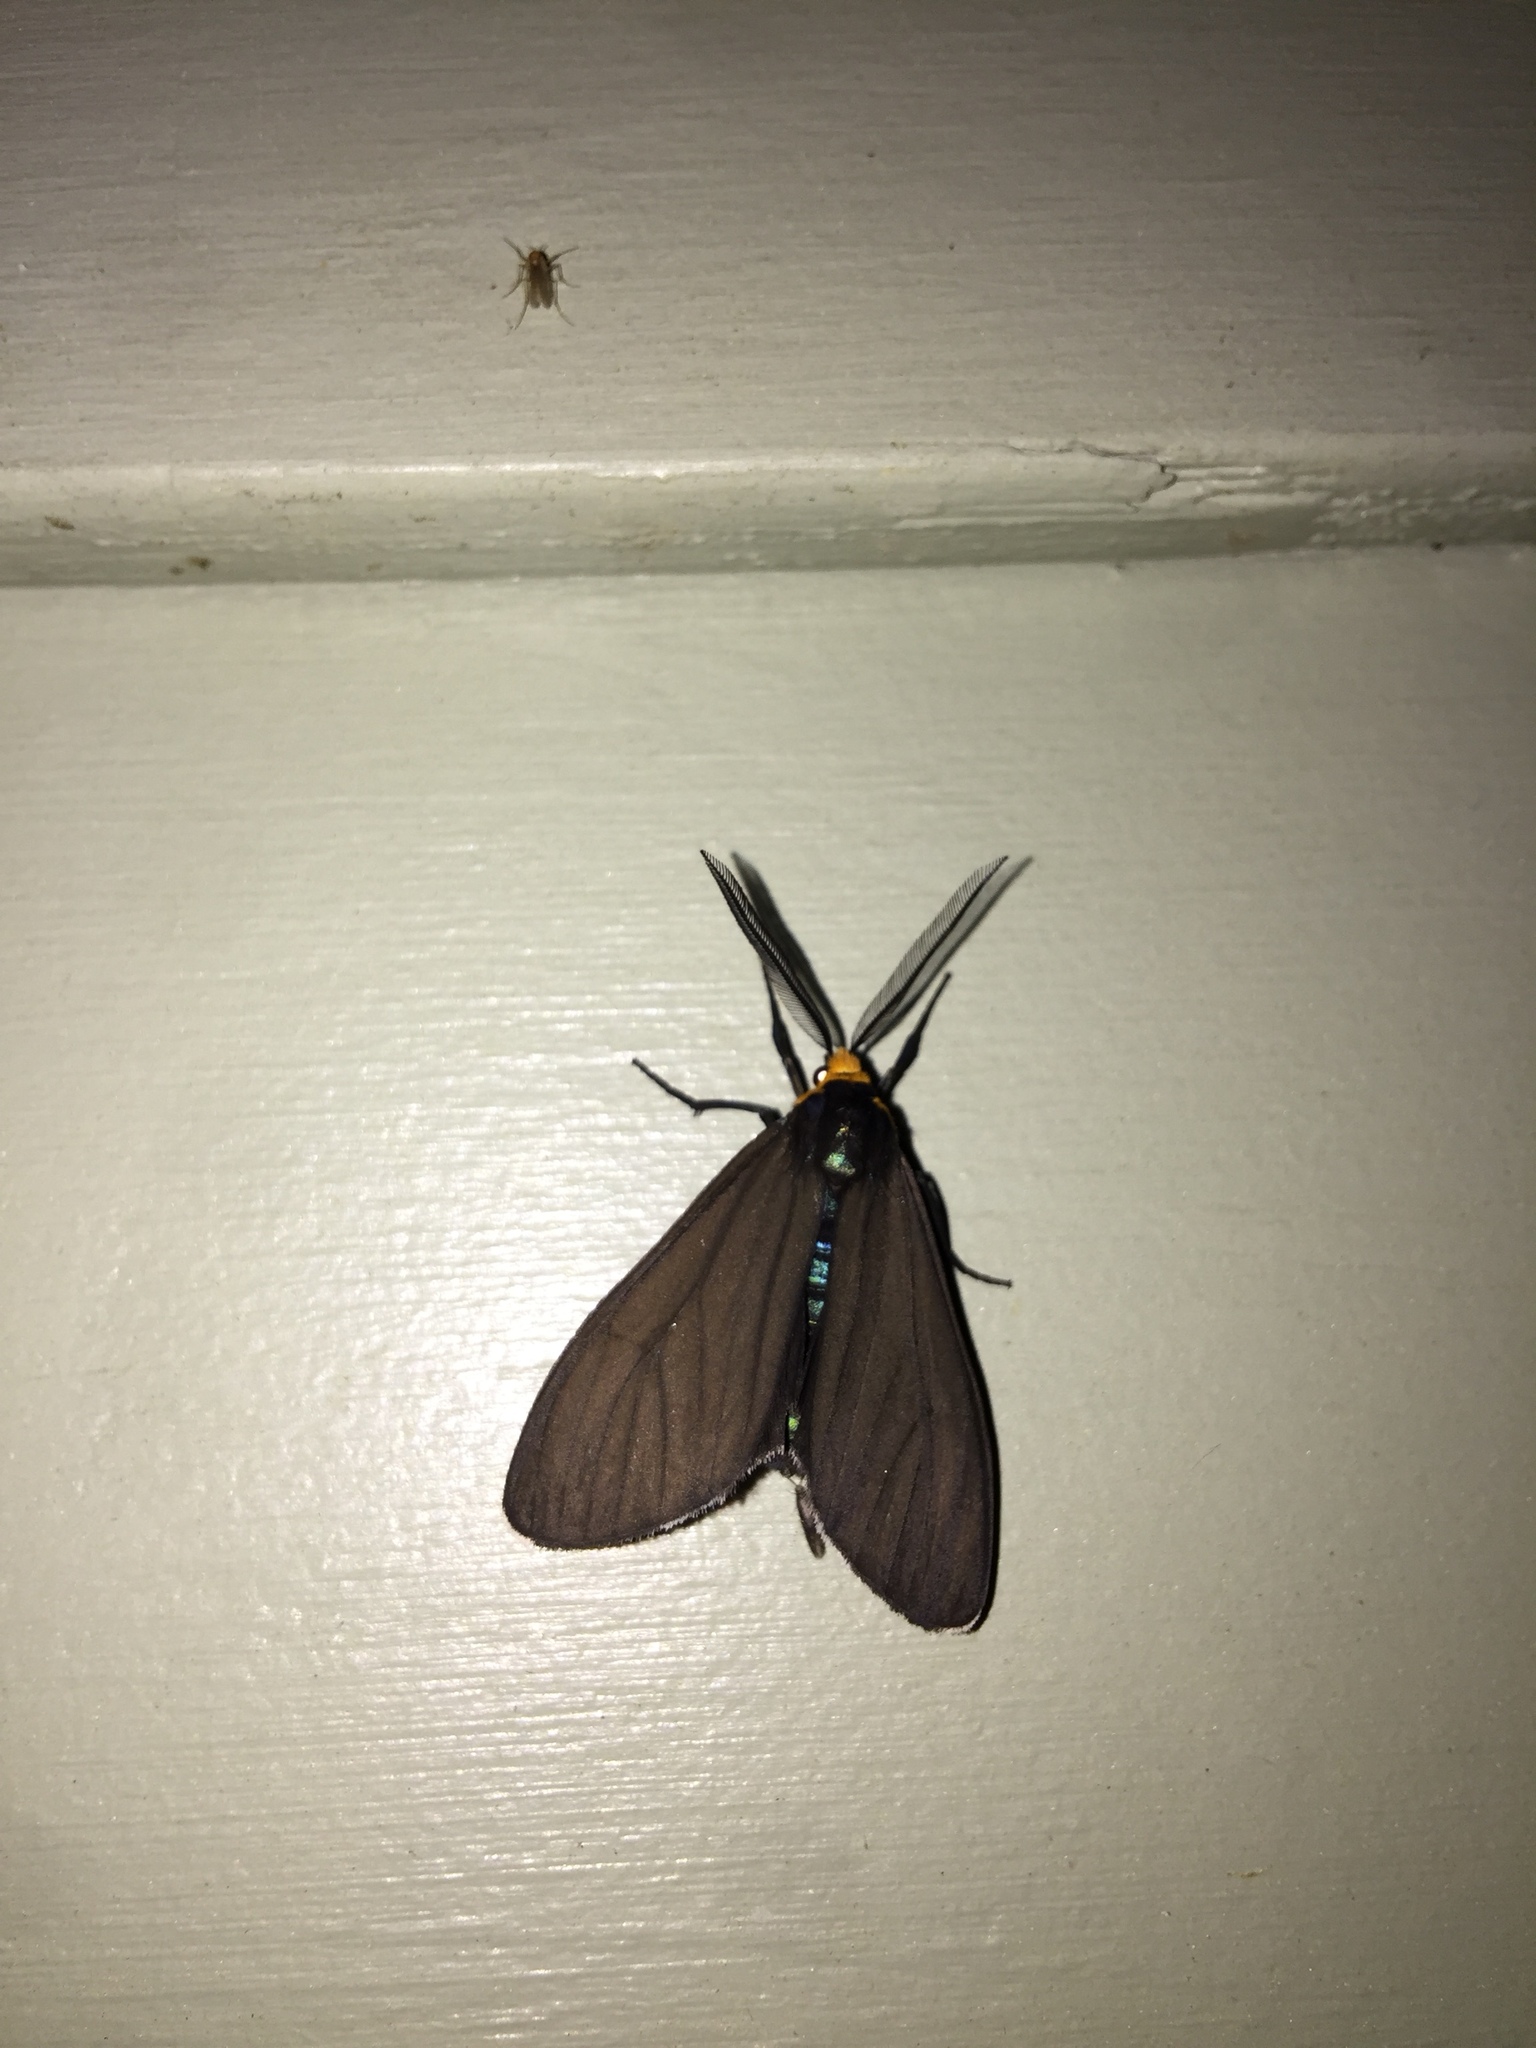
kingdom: Animalia
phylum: Arthropoda
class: Insecta
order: Lepidoptera
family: Erebidae
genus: Ctenucha
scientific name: Ctenucha virginica
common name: Virginia ctenucha moth
